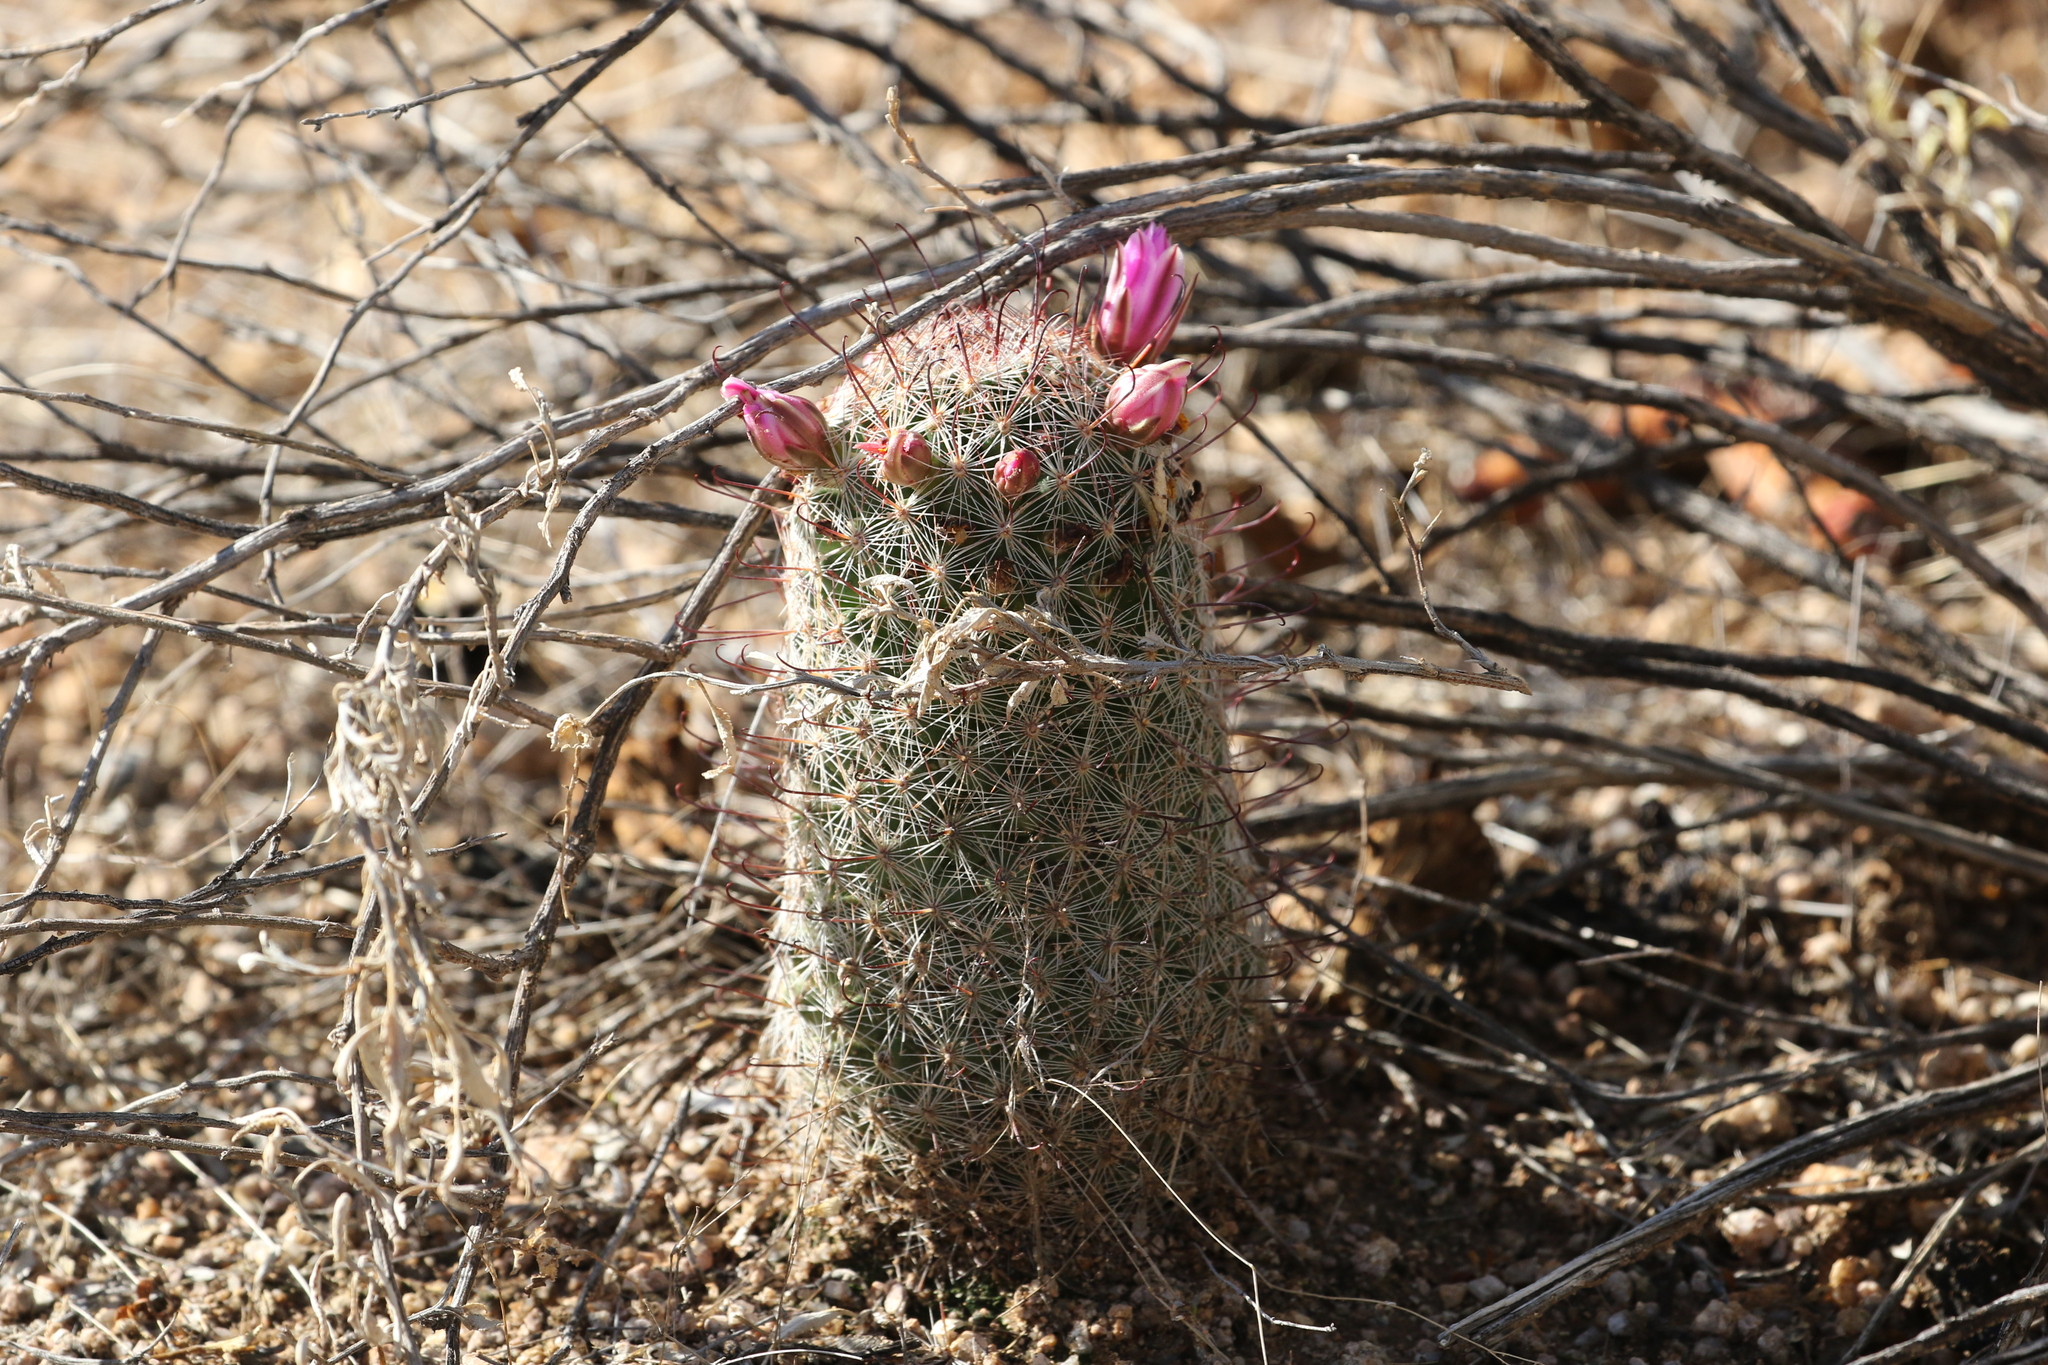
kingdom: Plantae
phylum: Tracheophyta
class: Magnoliopsida
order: Caryophyllales
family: Cactaceae
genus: Cochemiea
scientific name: Cochemiea grahamii
